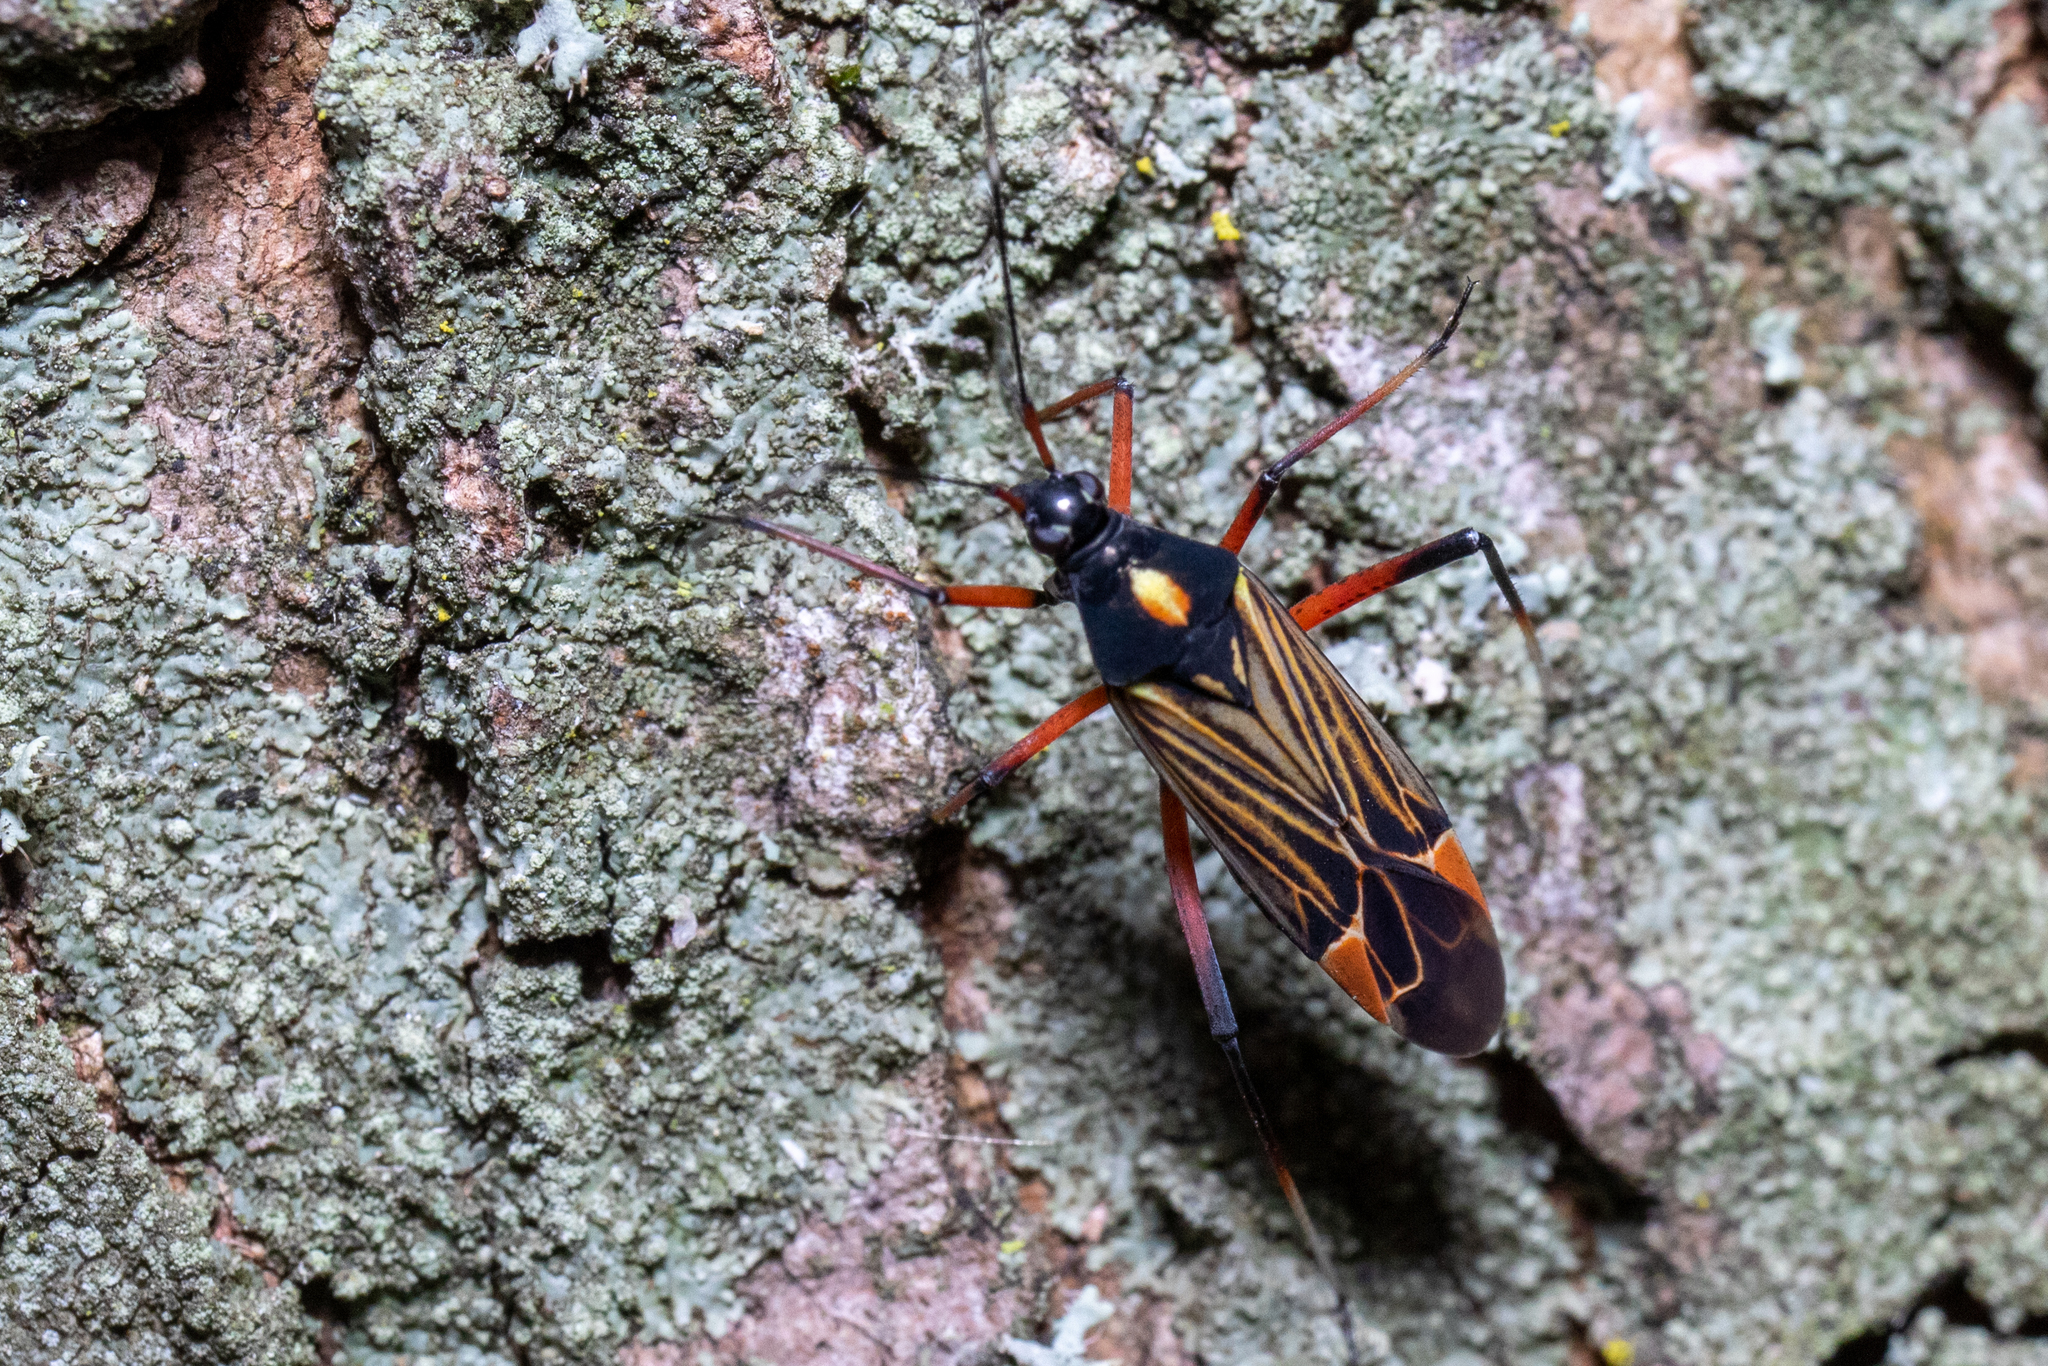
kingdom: Animalia
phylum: Arthropoda
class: Insecta
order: Hemiptera
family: Miridae
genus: Miris
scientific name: Miris striatus
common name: Fine streaked bugkin
